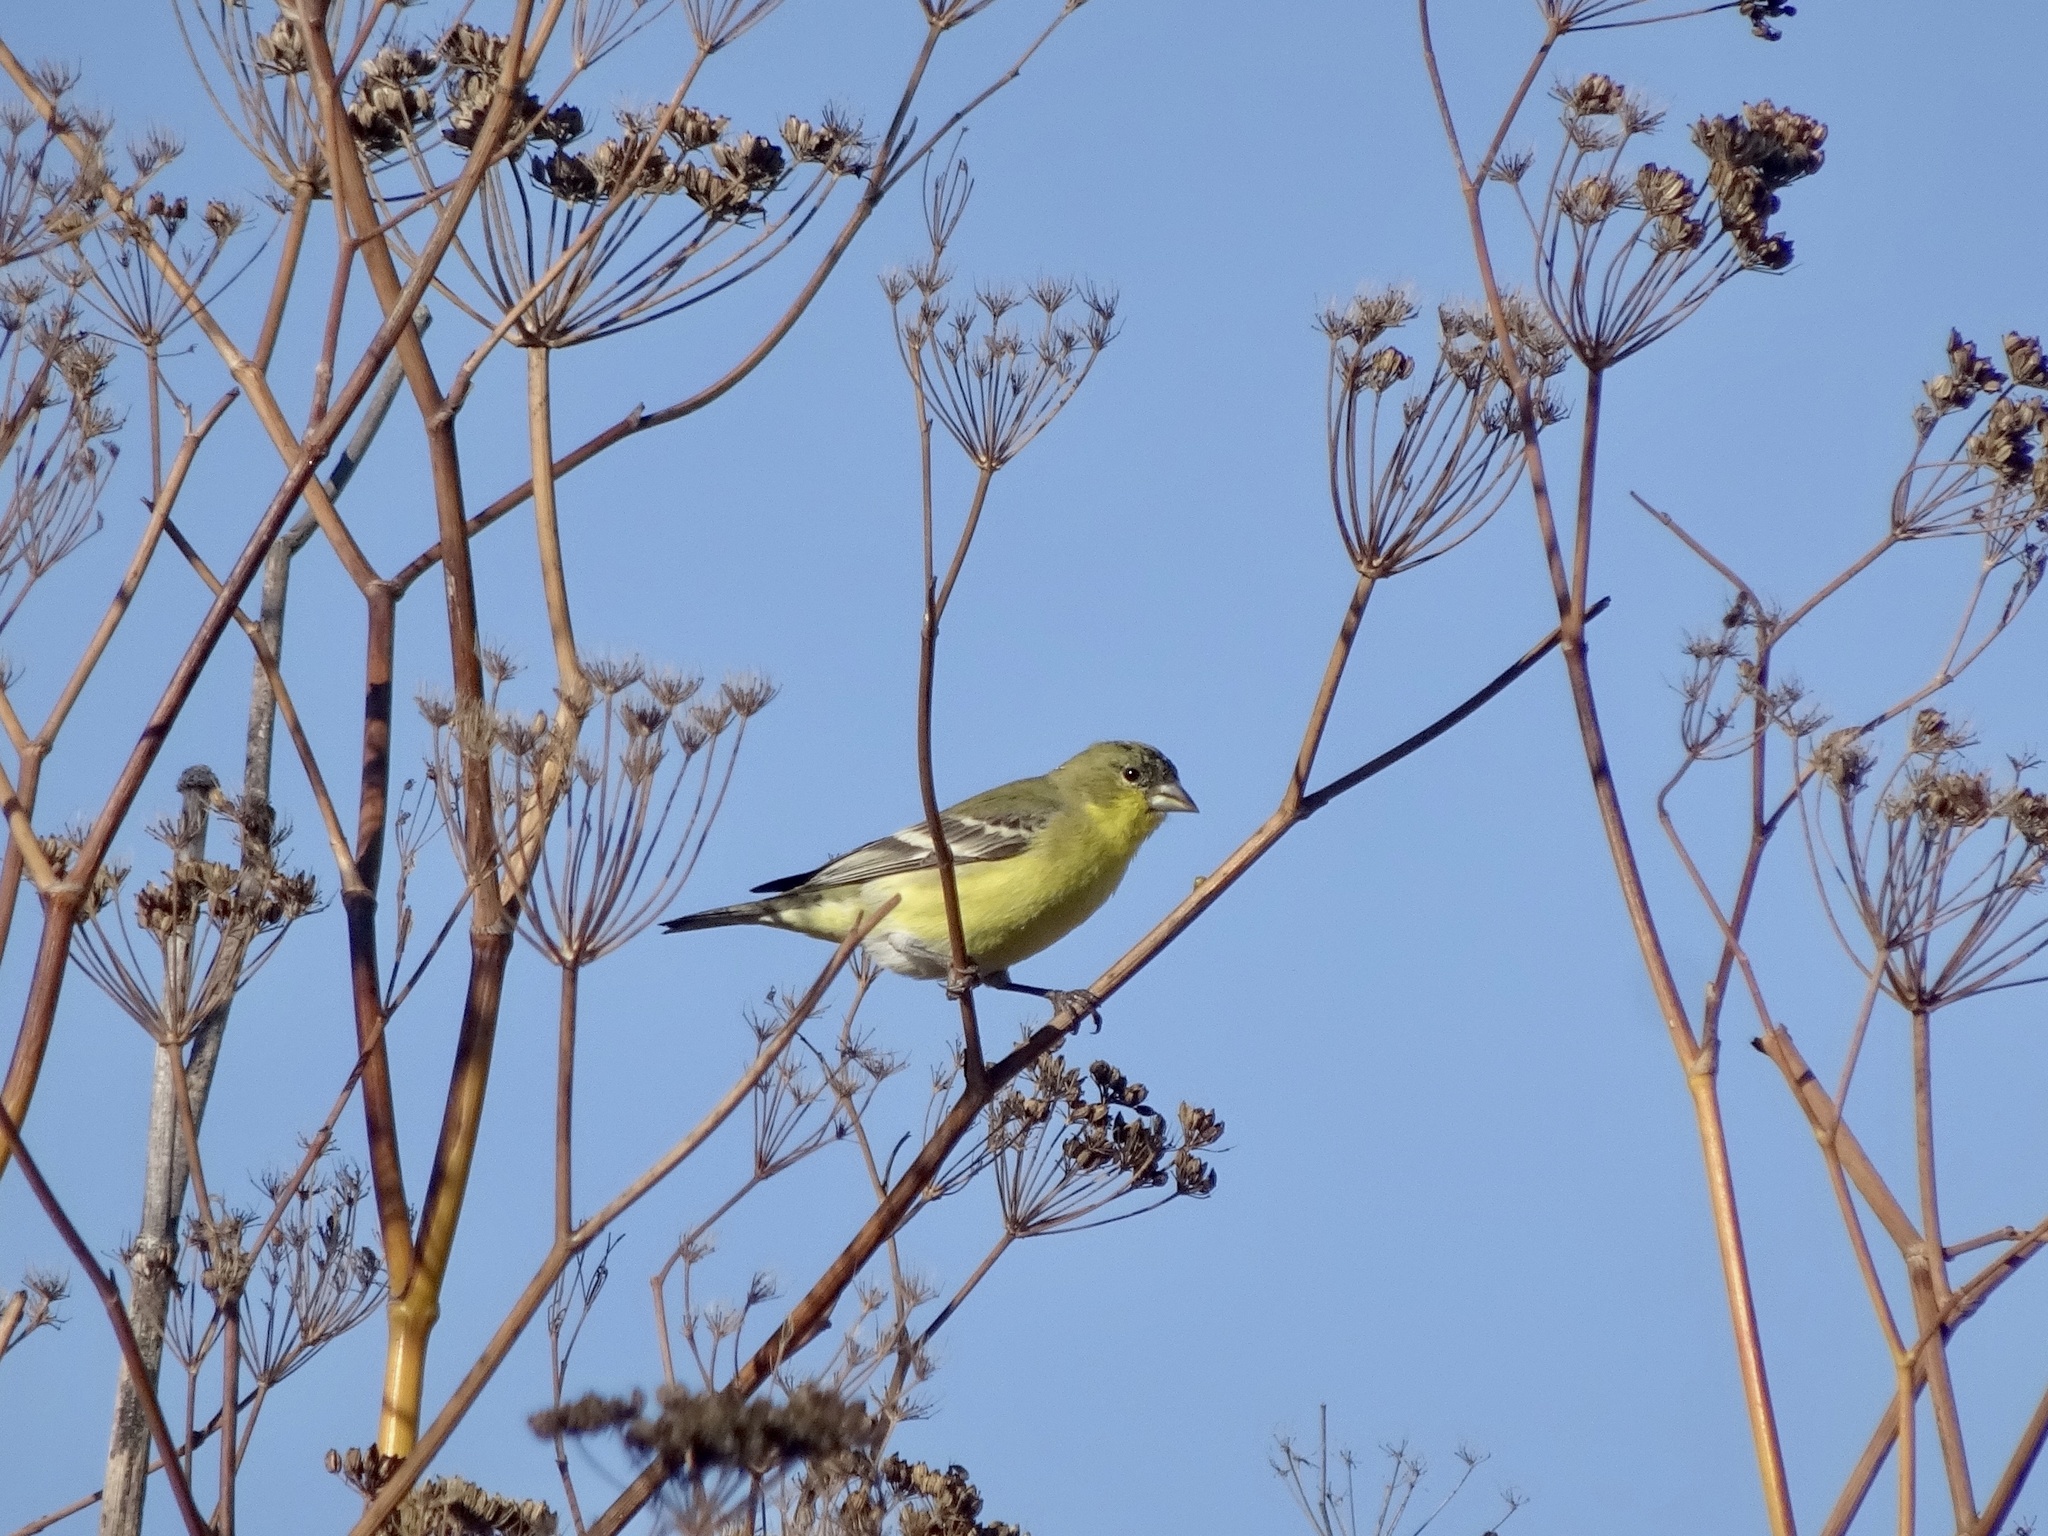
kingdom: Animalia
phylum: Chordata
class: Aves
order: Passeriformes
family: Fringillidae
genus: Spinus
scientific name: Spinus psaltria
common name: Lesser goldfinch
